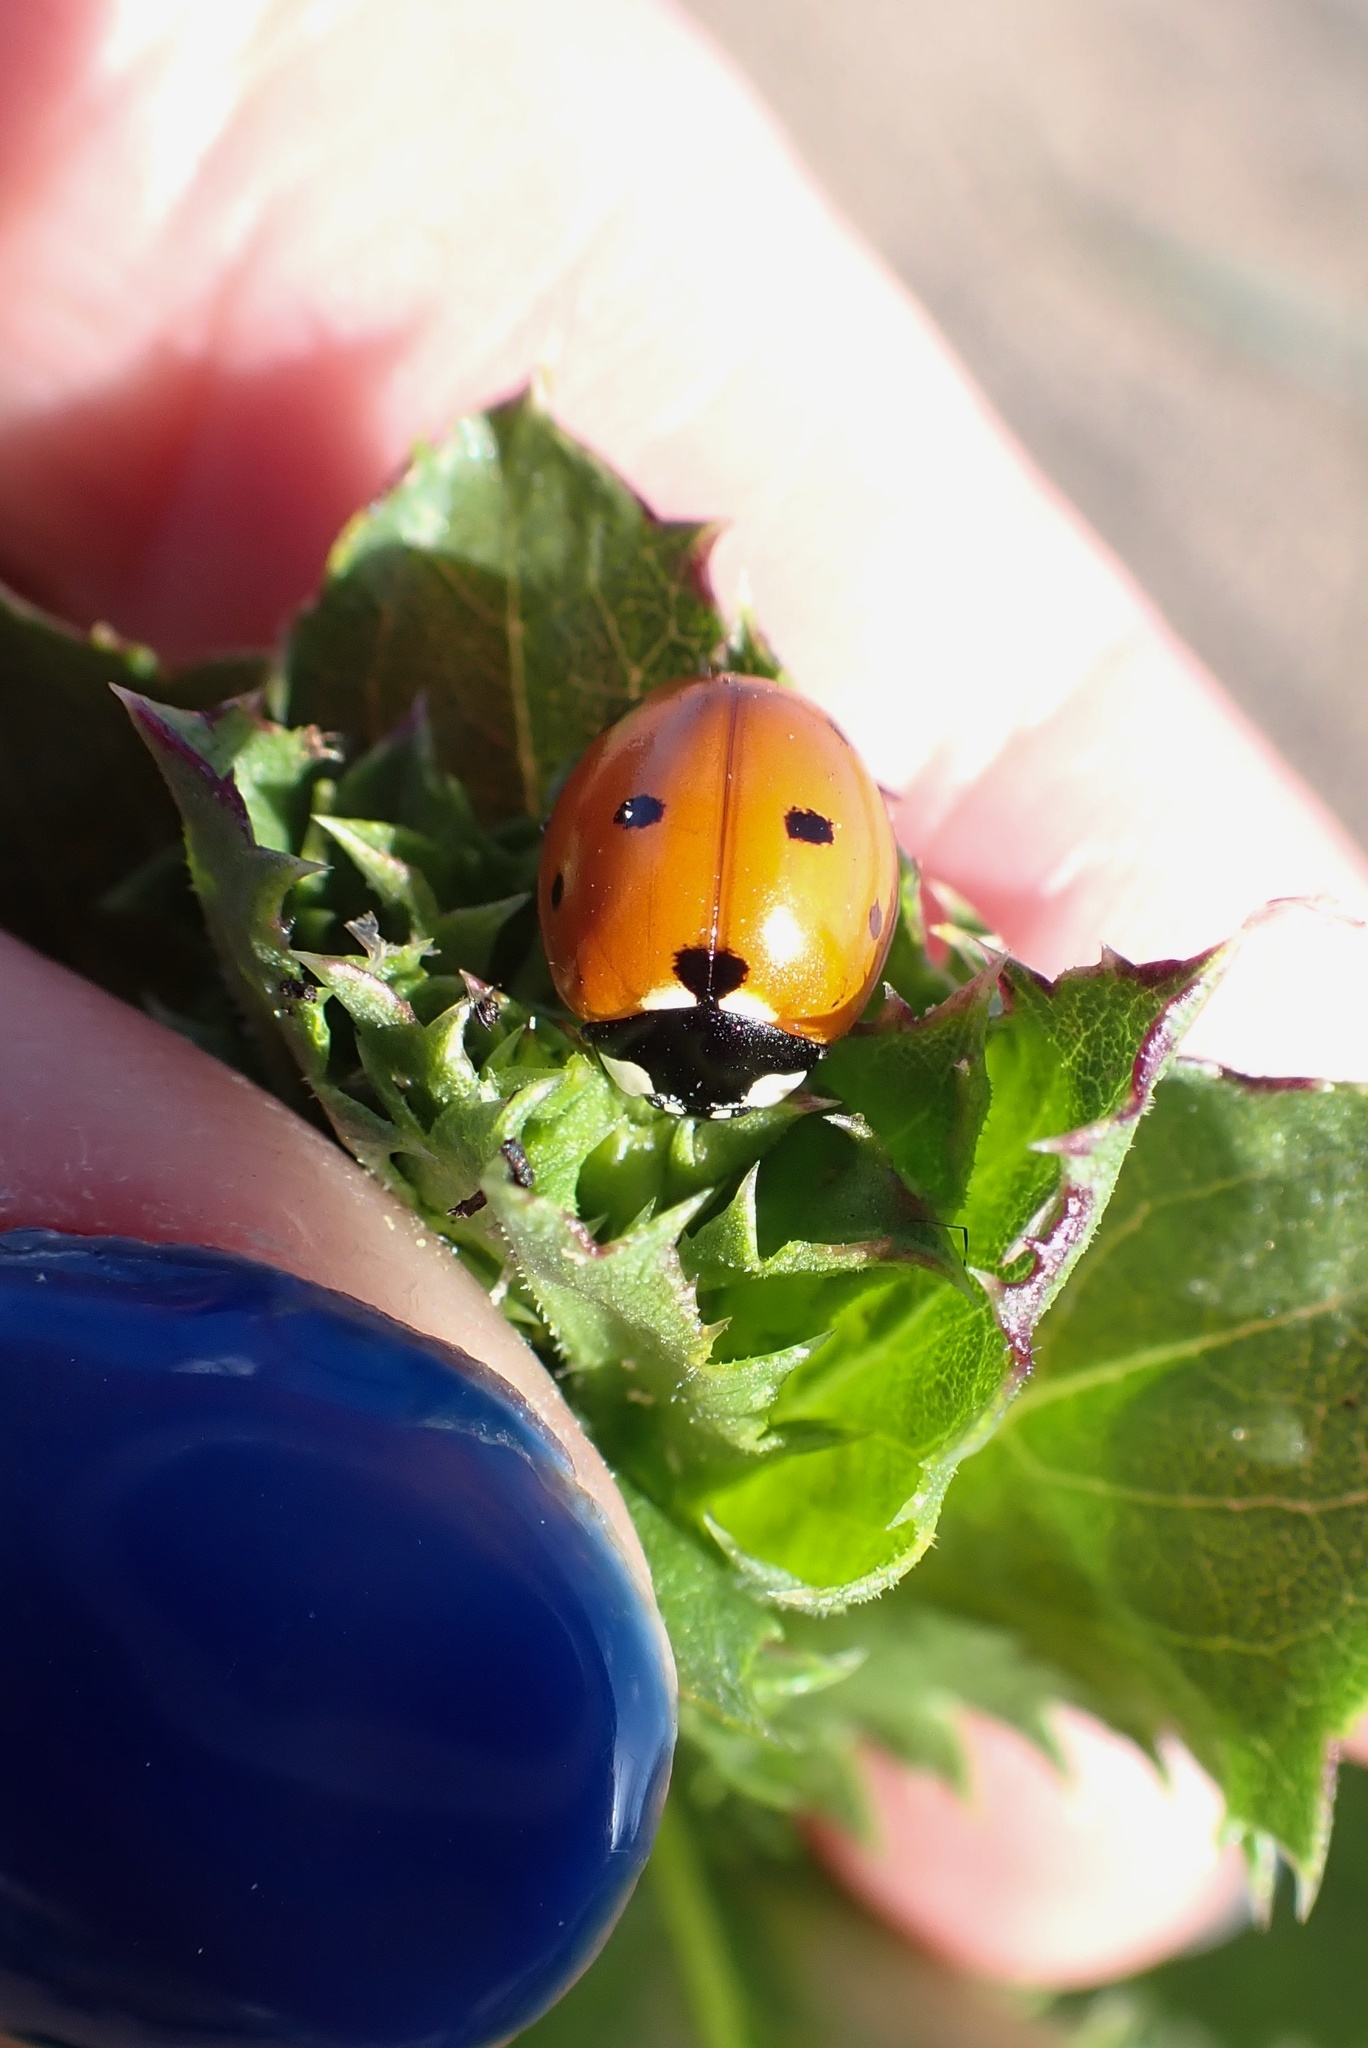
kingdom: Animalia
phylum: Arthropoda
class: Insecta
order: Coleoptera
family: Coccinellidae
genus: Coccinella
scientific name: Coccinella septempunctata
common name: Sevenspotted lady beetle
